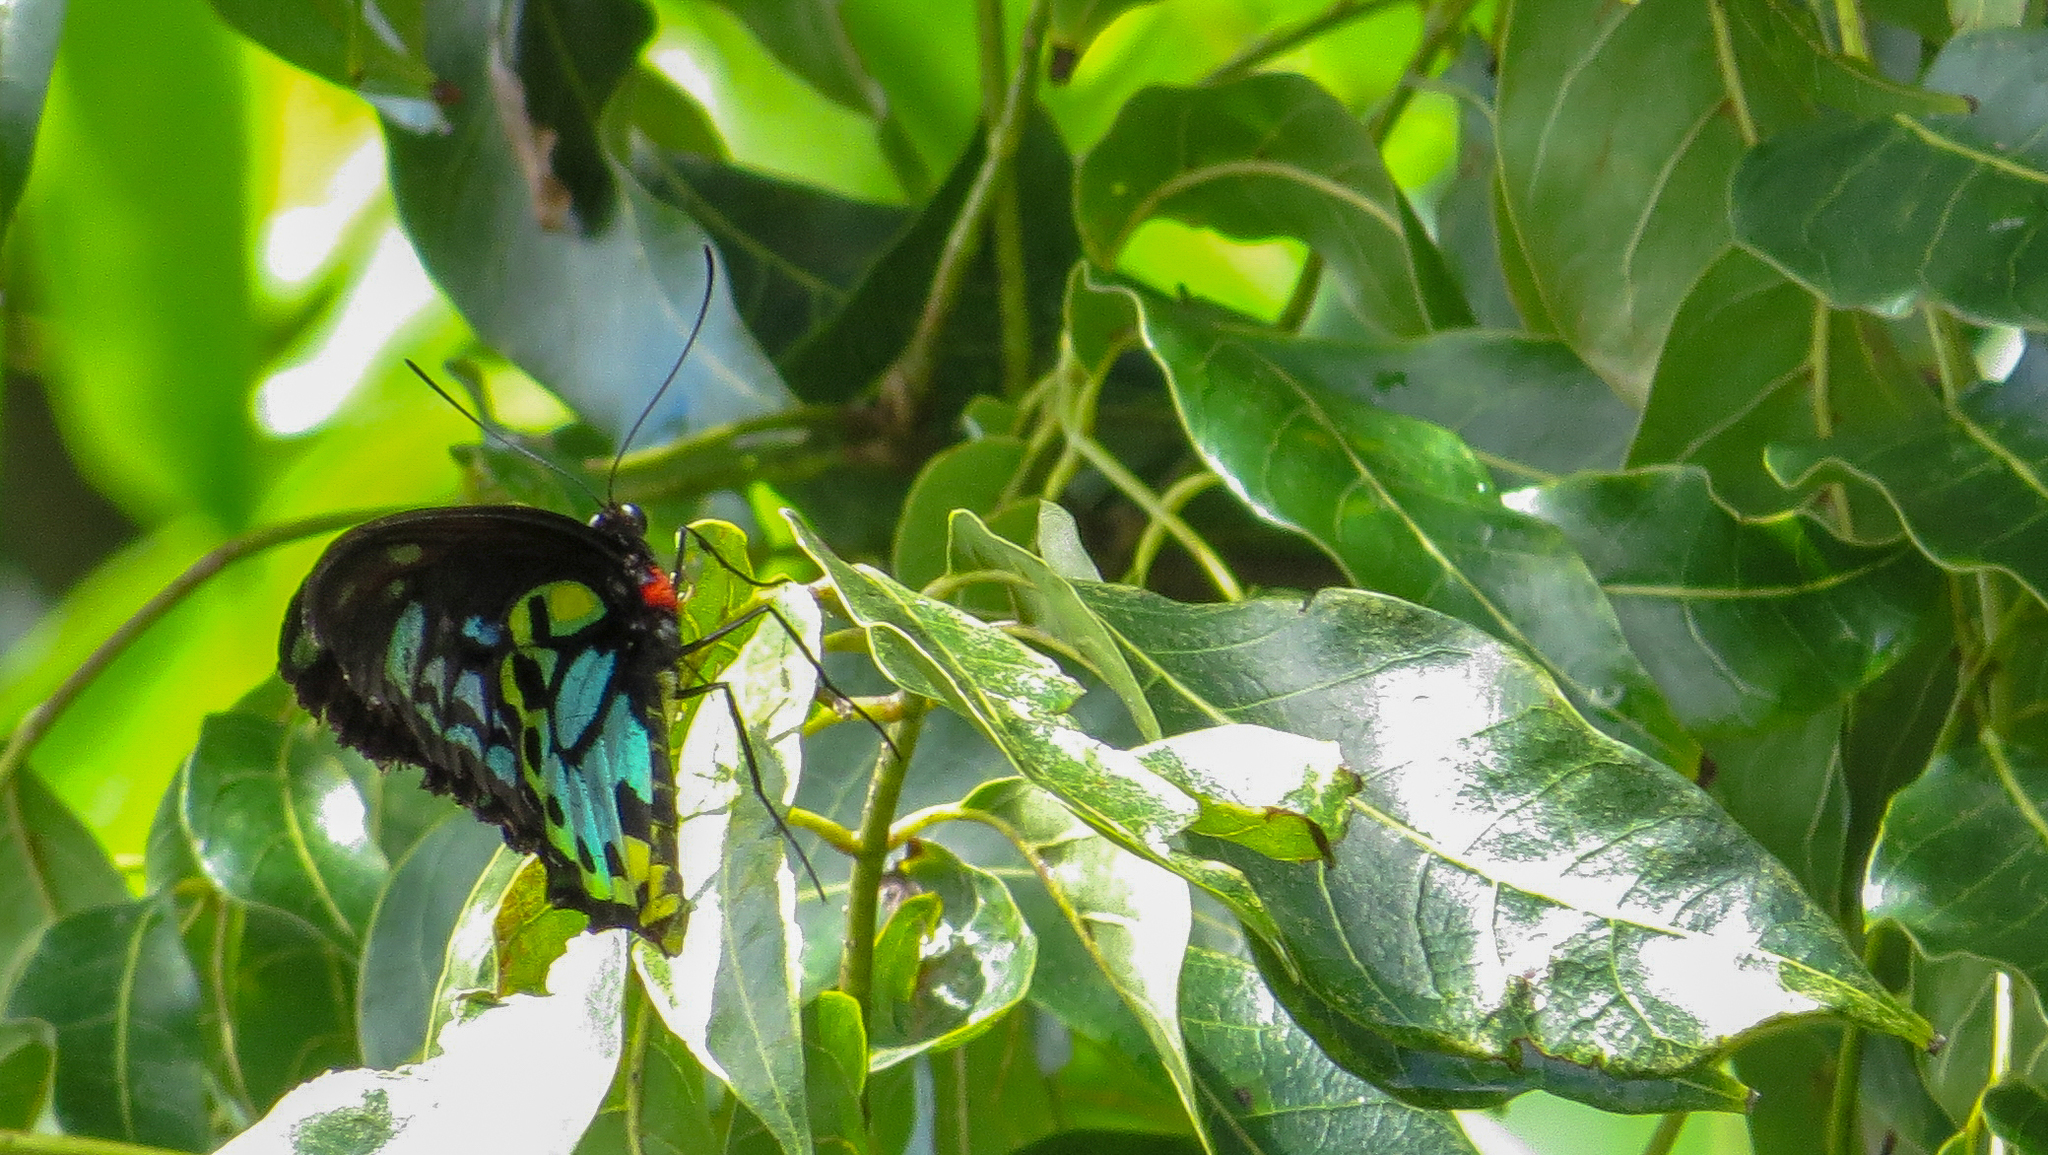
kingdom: Animalia
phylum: Arthropoda
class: Insecta
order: Lepidoptera
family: Papilionidae
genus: Ornithoptera
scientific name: Ornithoptera richmondia
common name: Richmond birdwing
